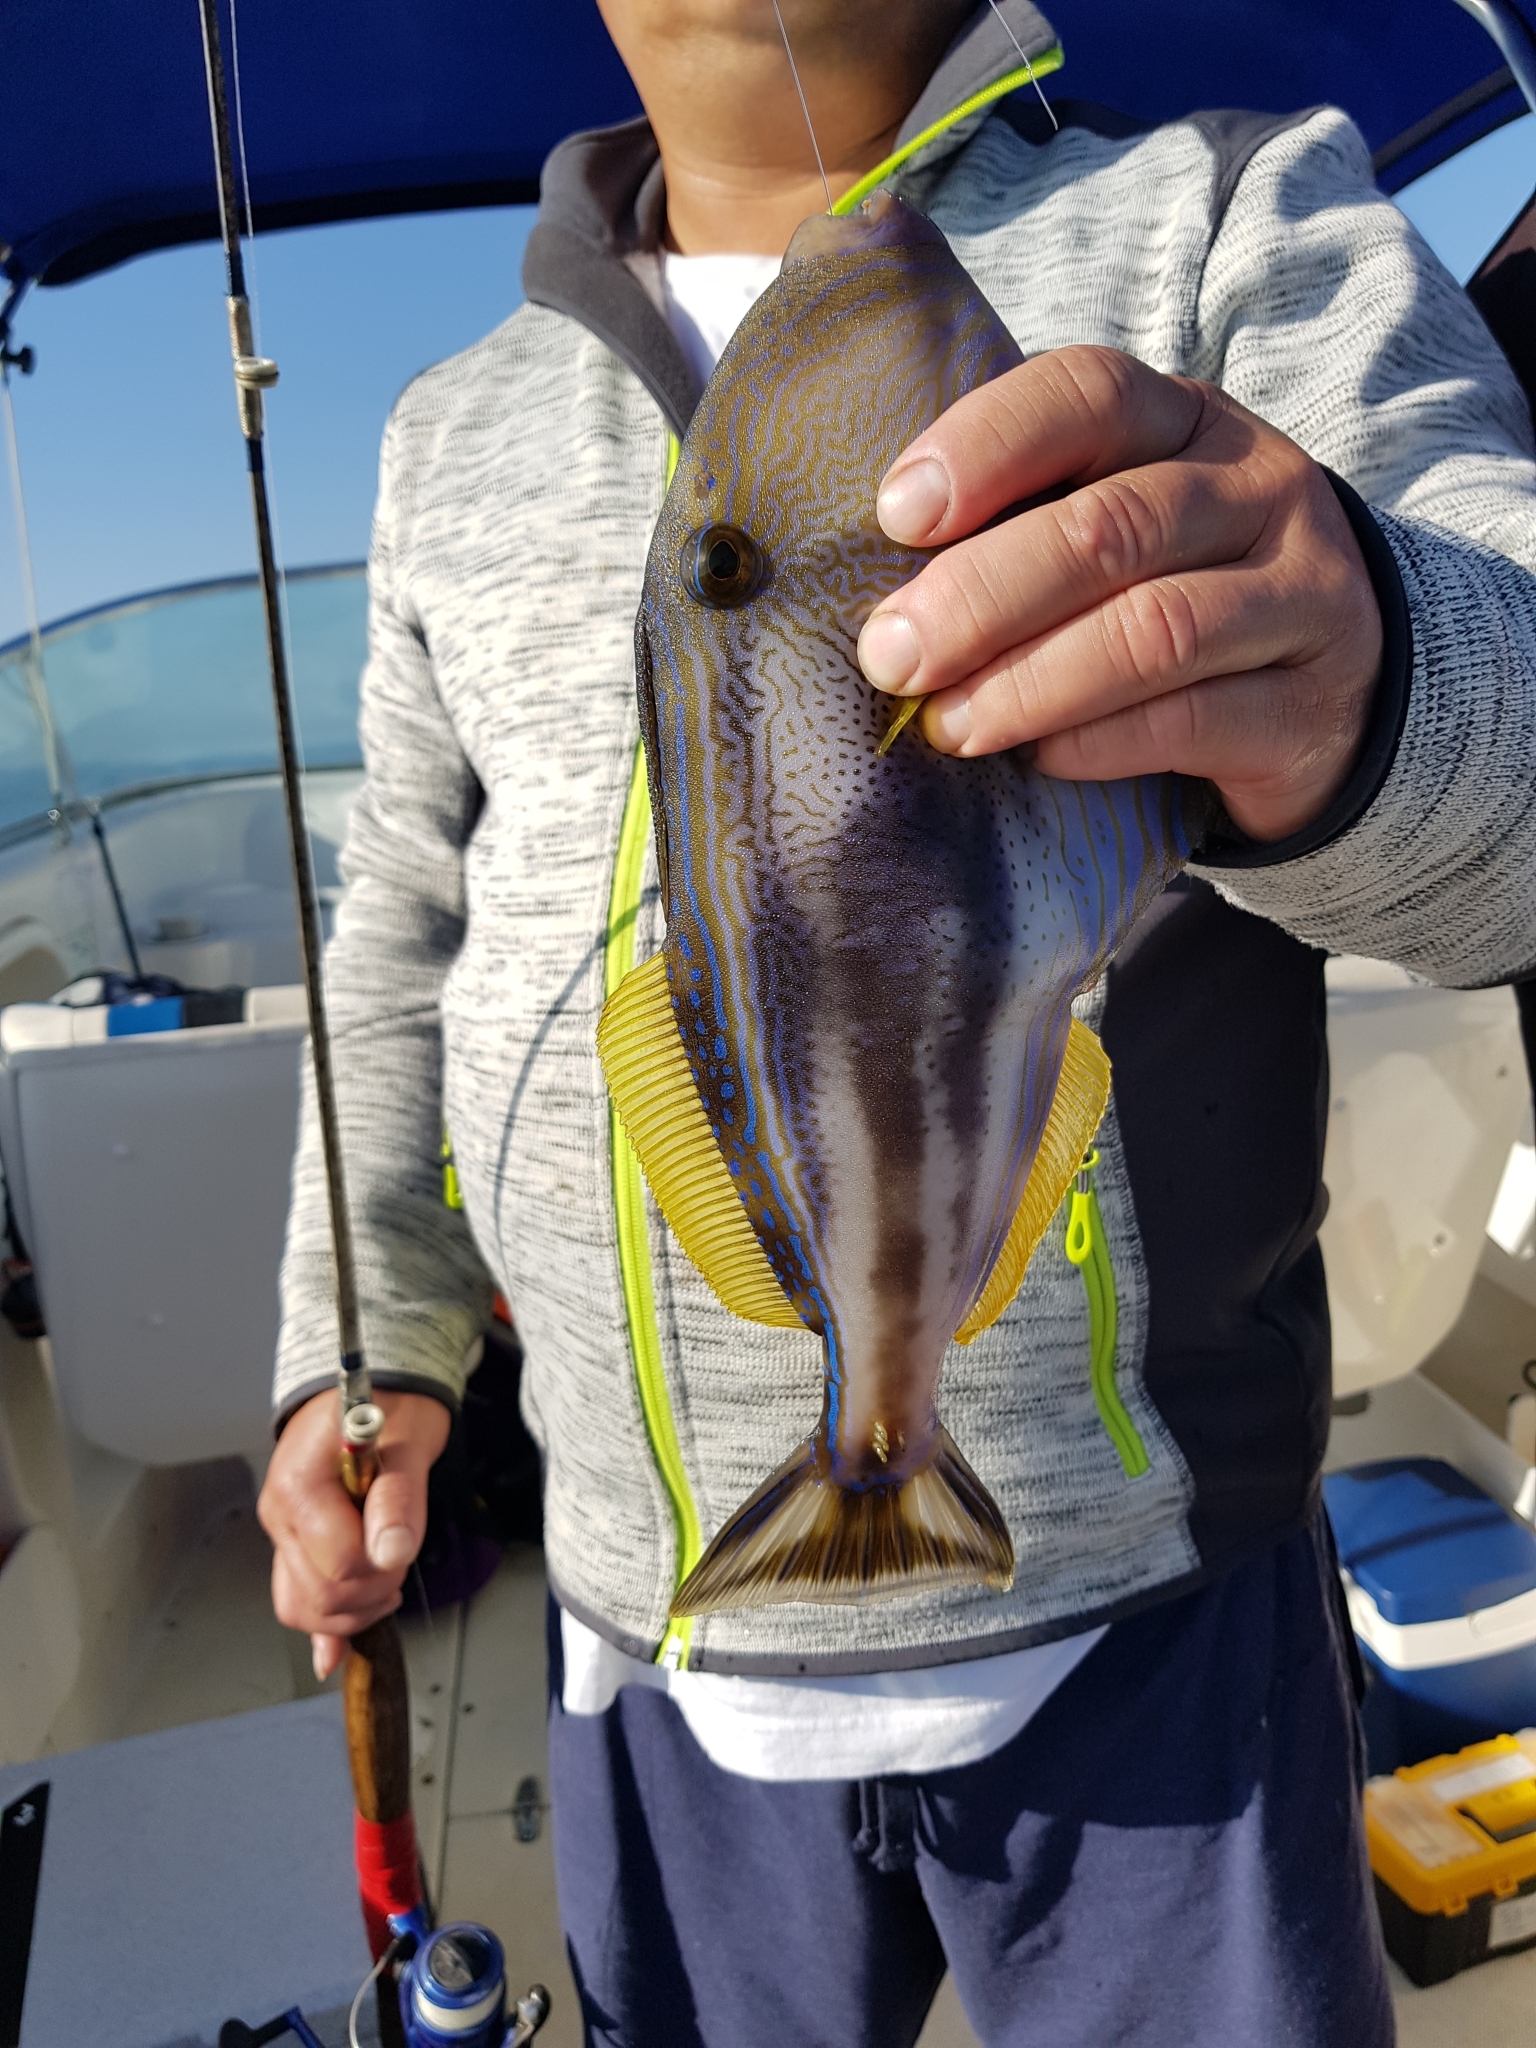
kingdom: Animalia
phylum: Chordata
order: Tetraodontiformes
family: Monacanthidae
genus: Meuschenia
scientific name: Meuschenia freycineti
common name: Freycinet's leatherjacket
